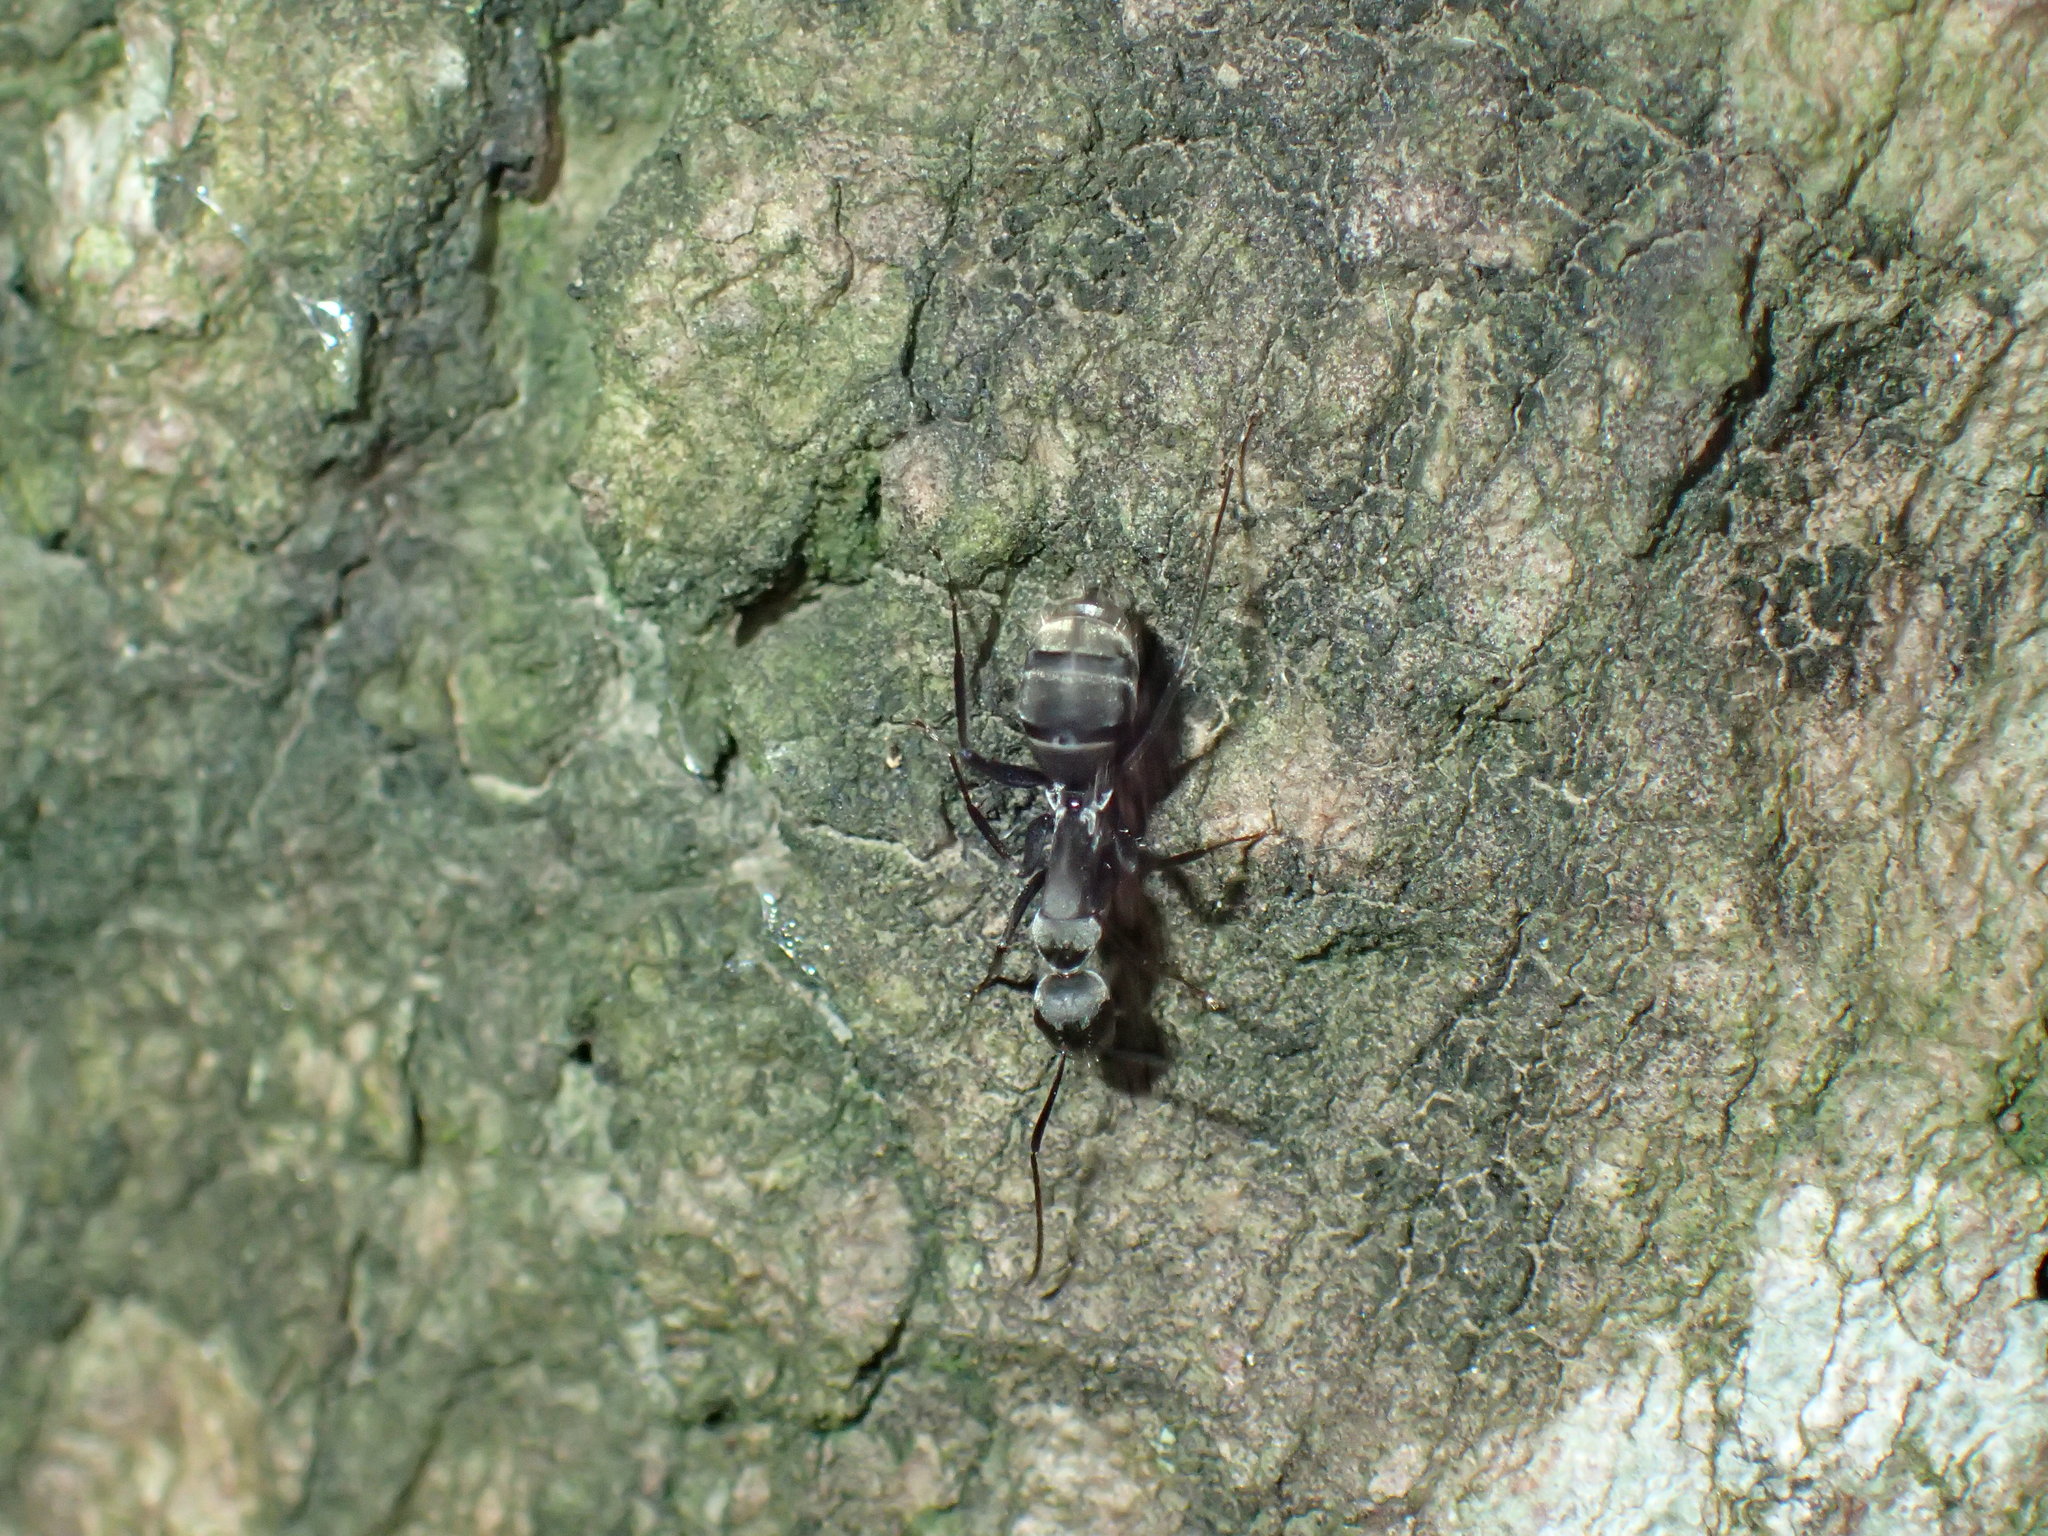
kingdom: Animalia
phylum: Arthropoda
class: Insecta
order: Hymenoptera
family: Formicidae
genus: Camponotus
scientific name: Camponotus cinctellus
